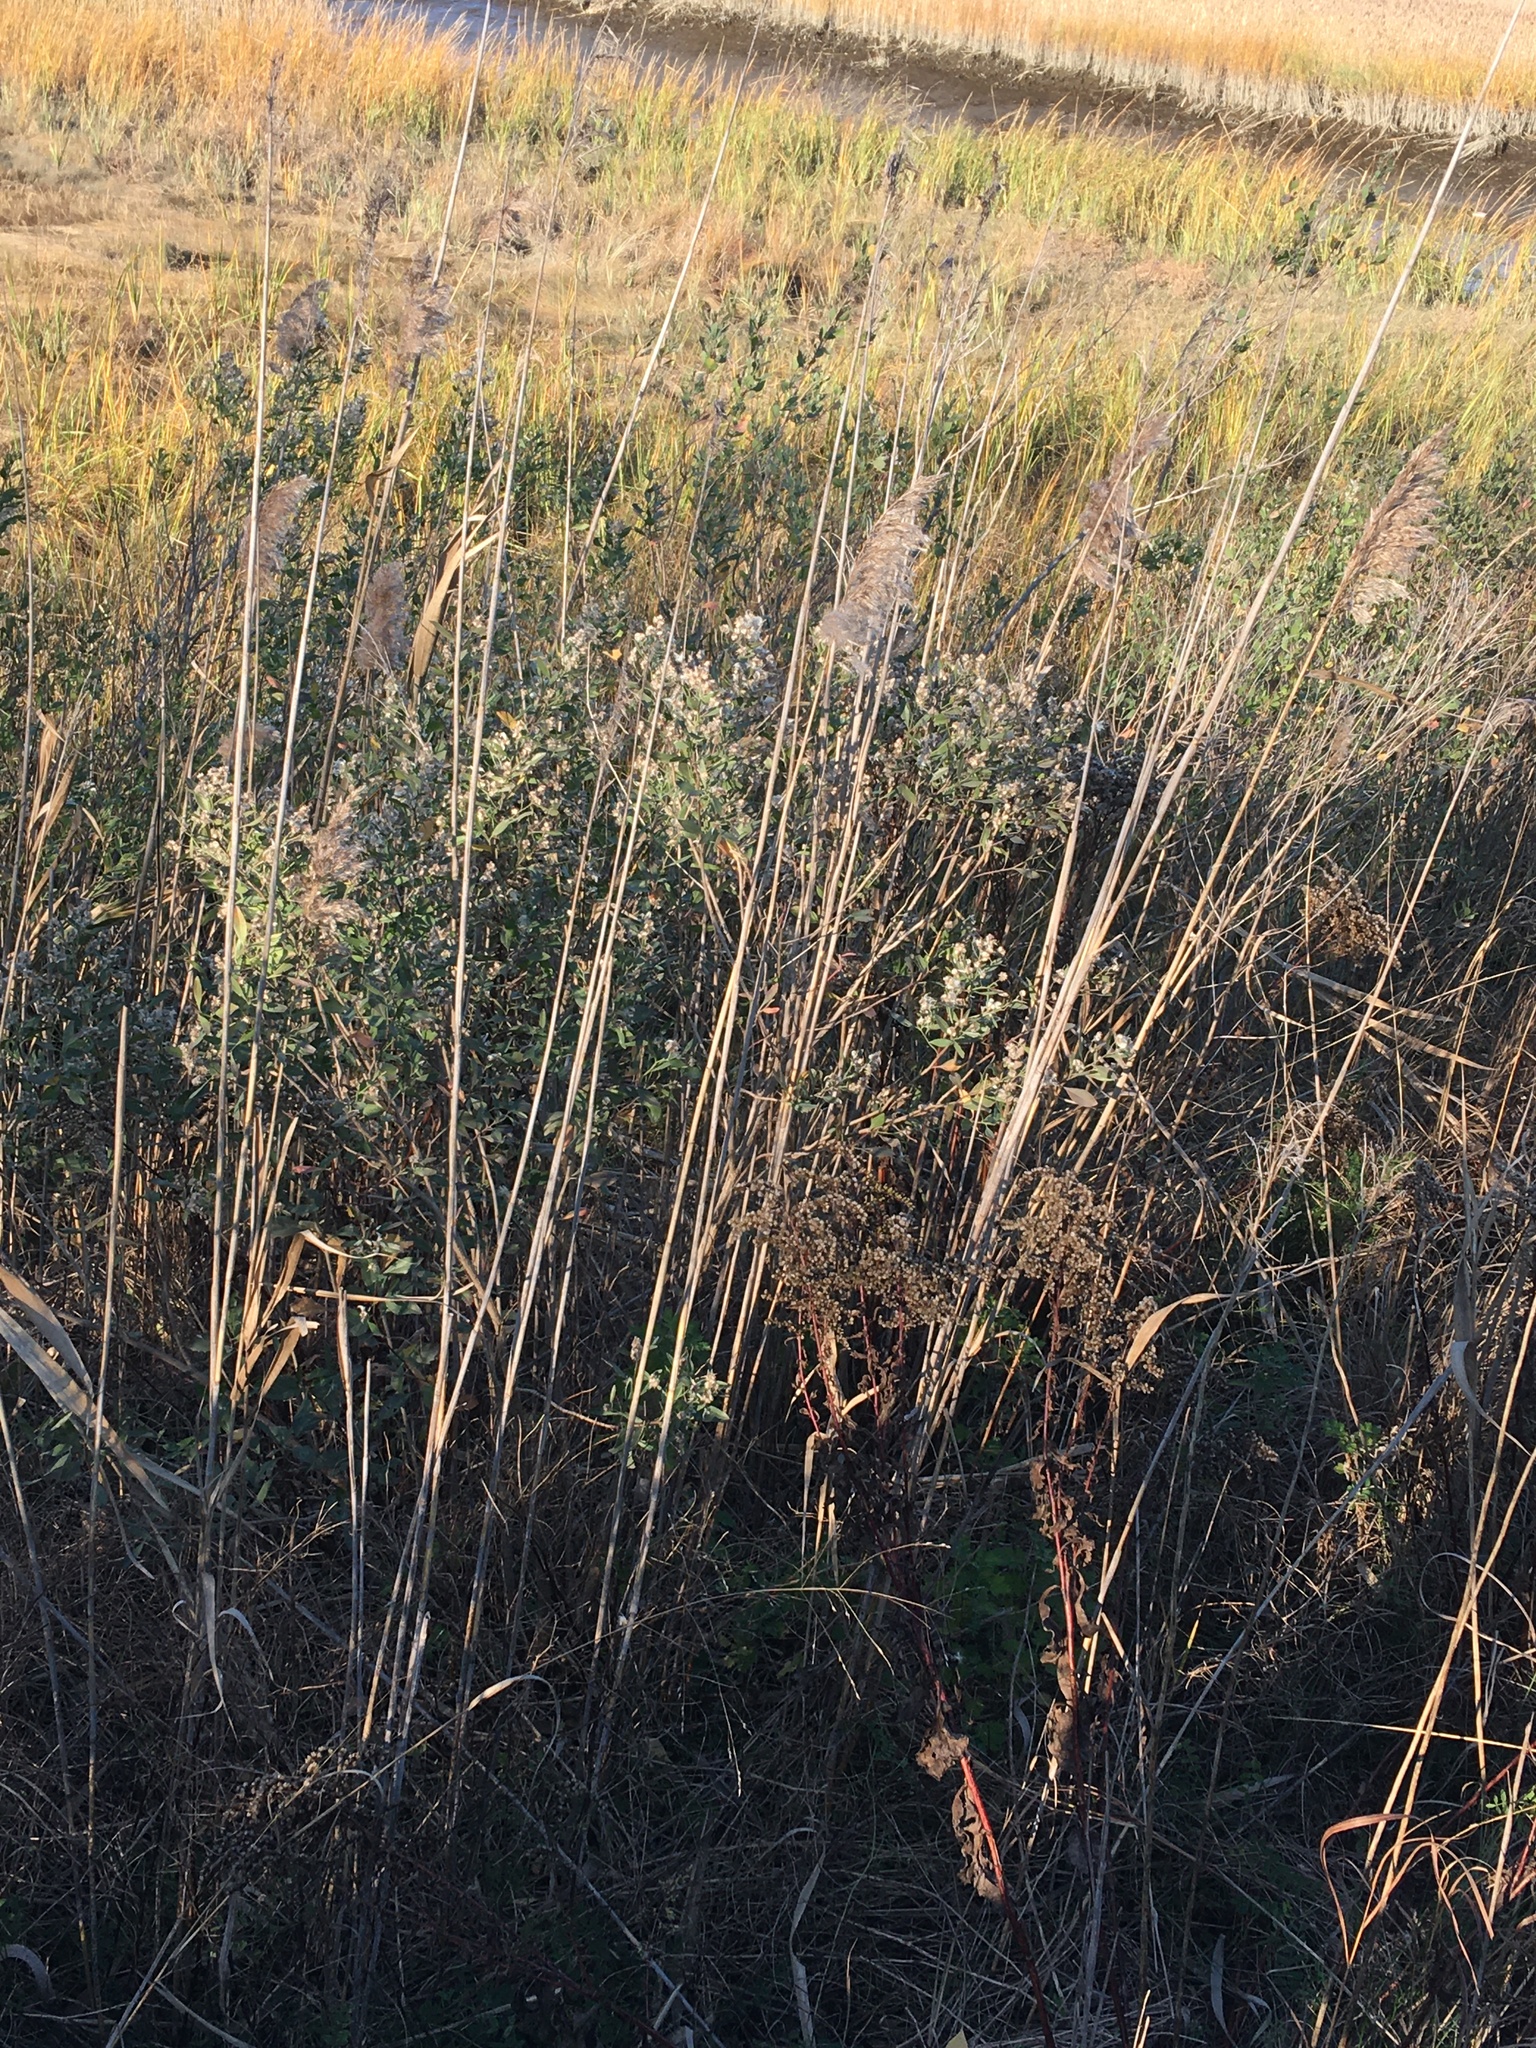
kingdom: Plantae
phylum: Tracheophyta
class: Magnoliopsida
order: Asterales
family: Asteraceae
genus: Baccharis
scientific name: Baccharis halimifolia
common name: Eastern baccharis
